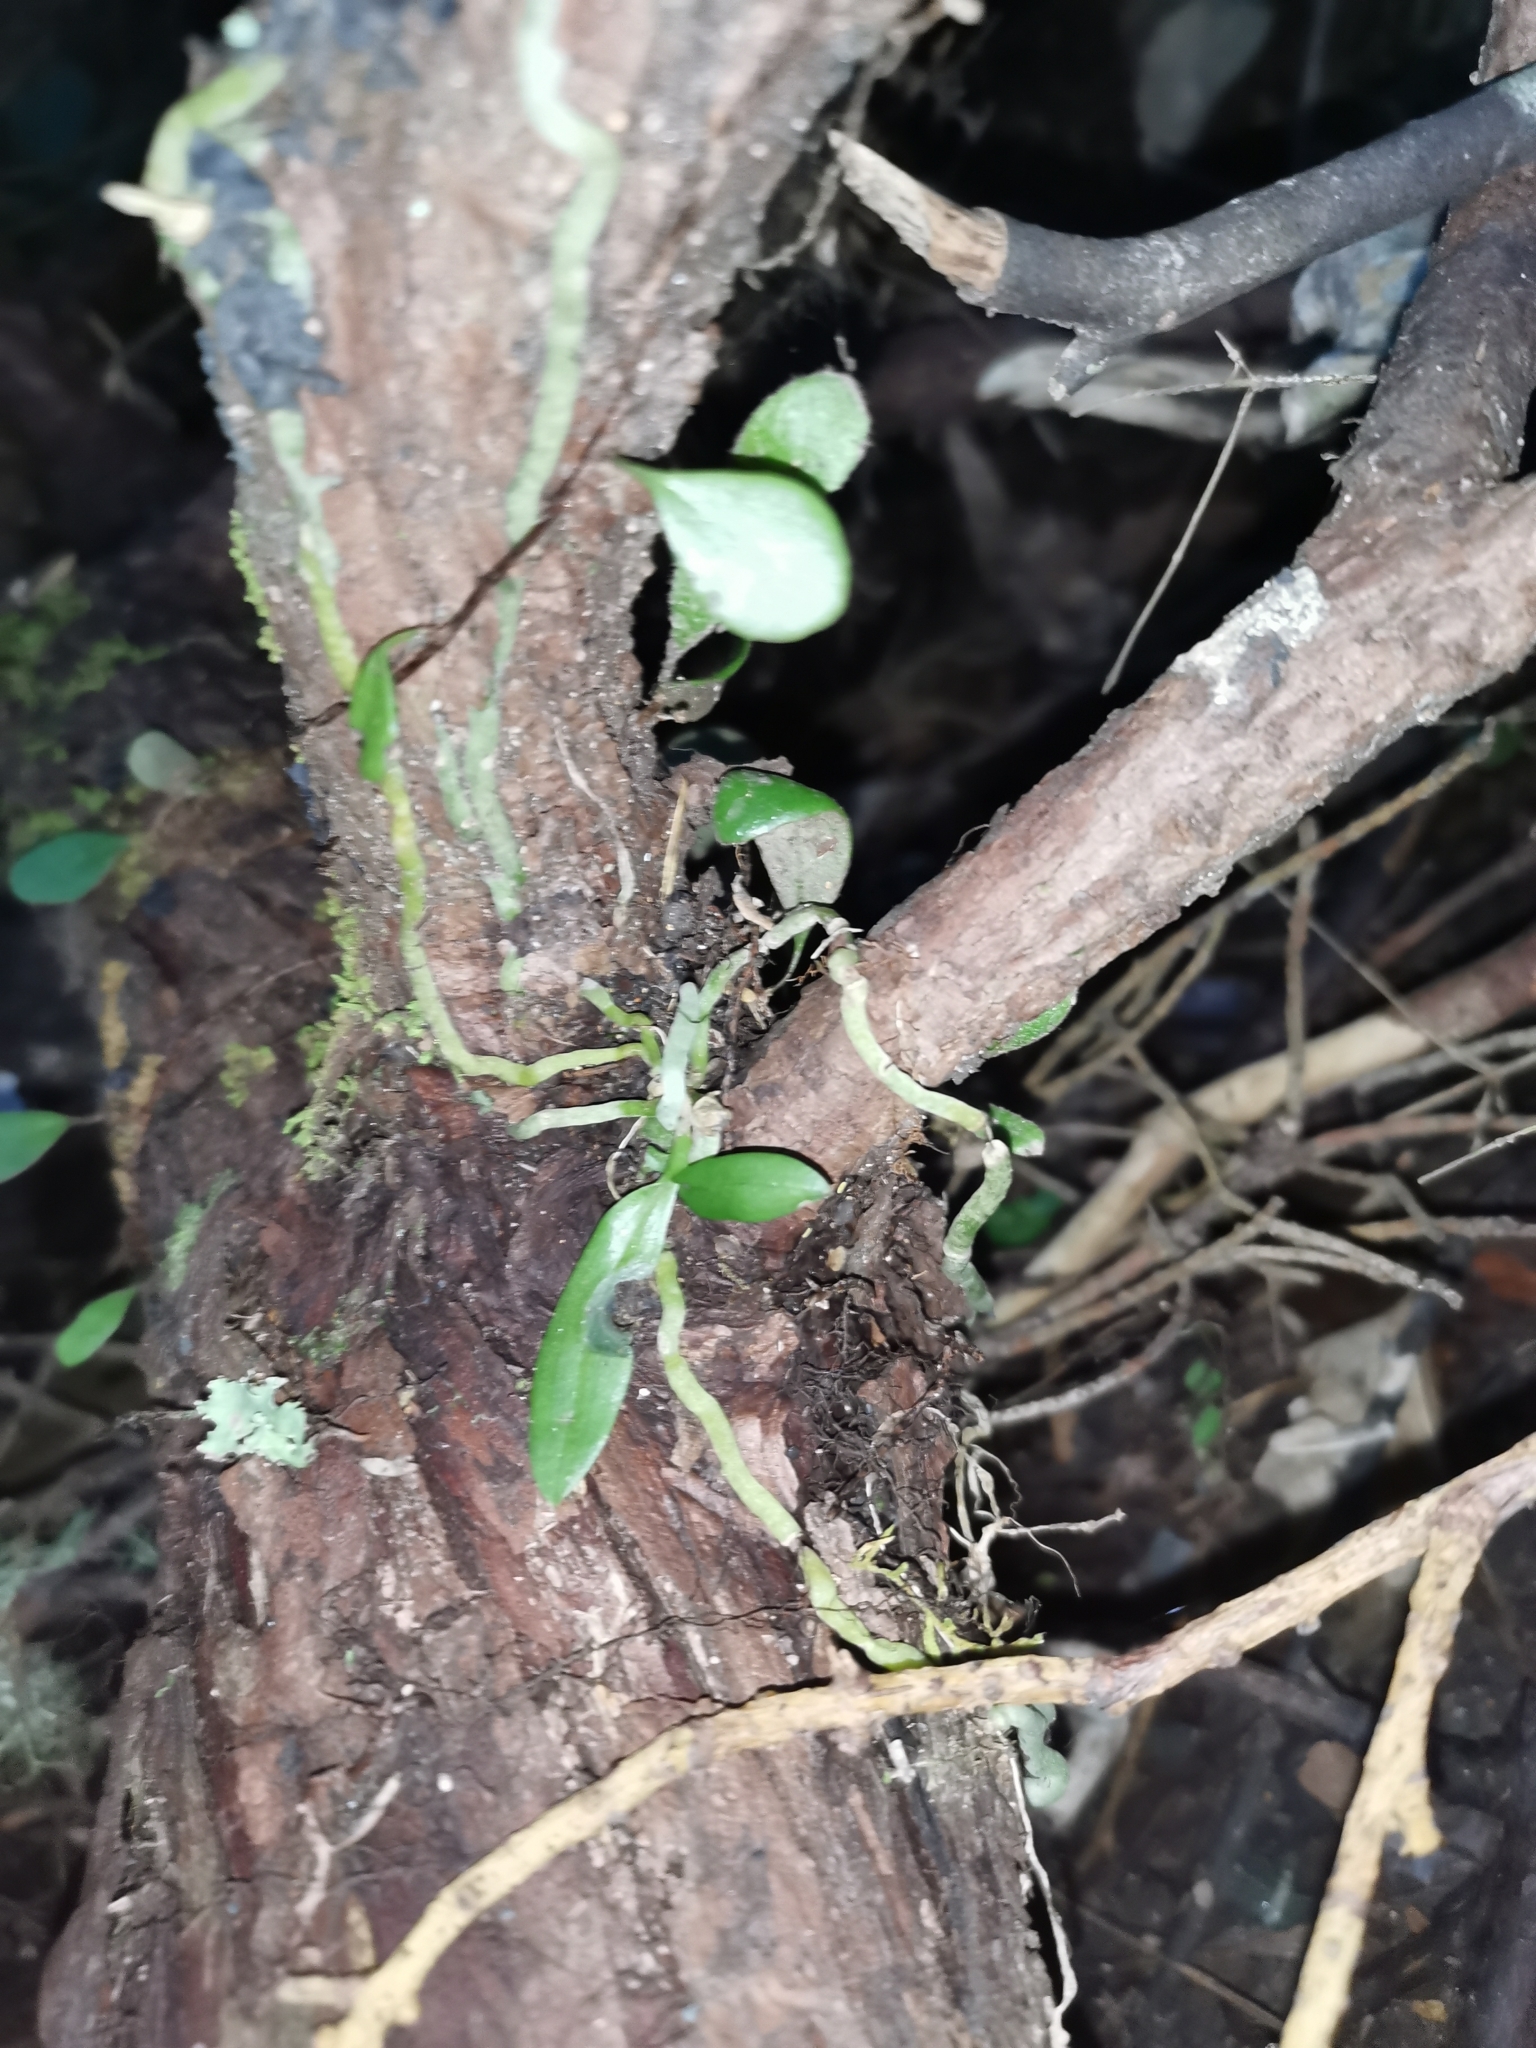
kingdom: Plantae
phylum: Tracheophyta
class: Liliopsida
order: Asparagales
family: Orchidaceae
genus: Drymoanthus
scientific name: Drymoanthus adversus
